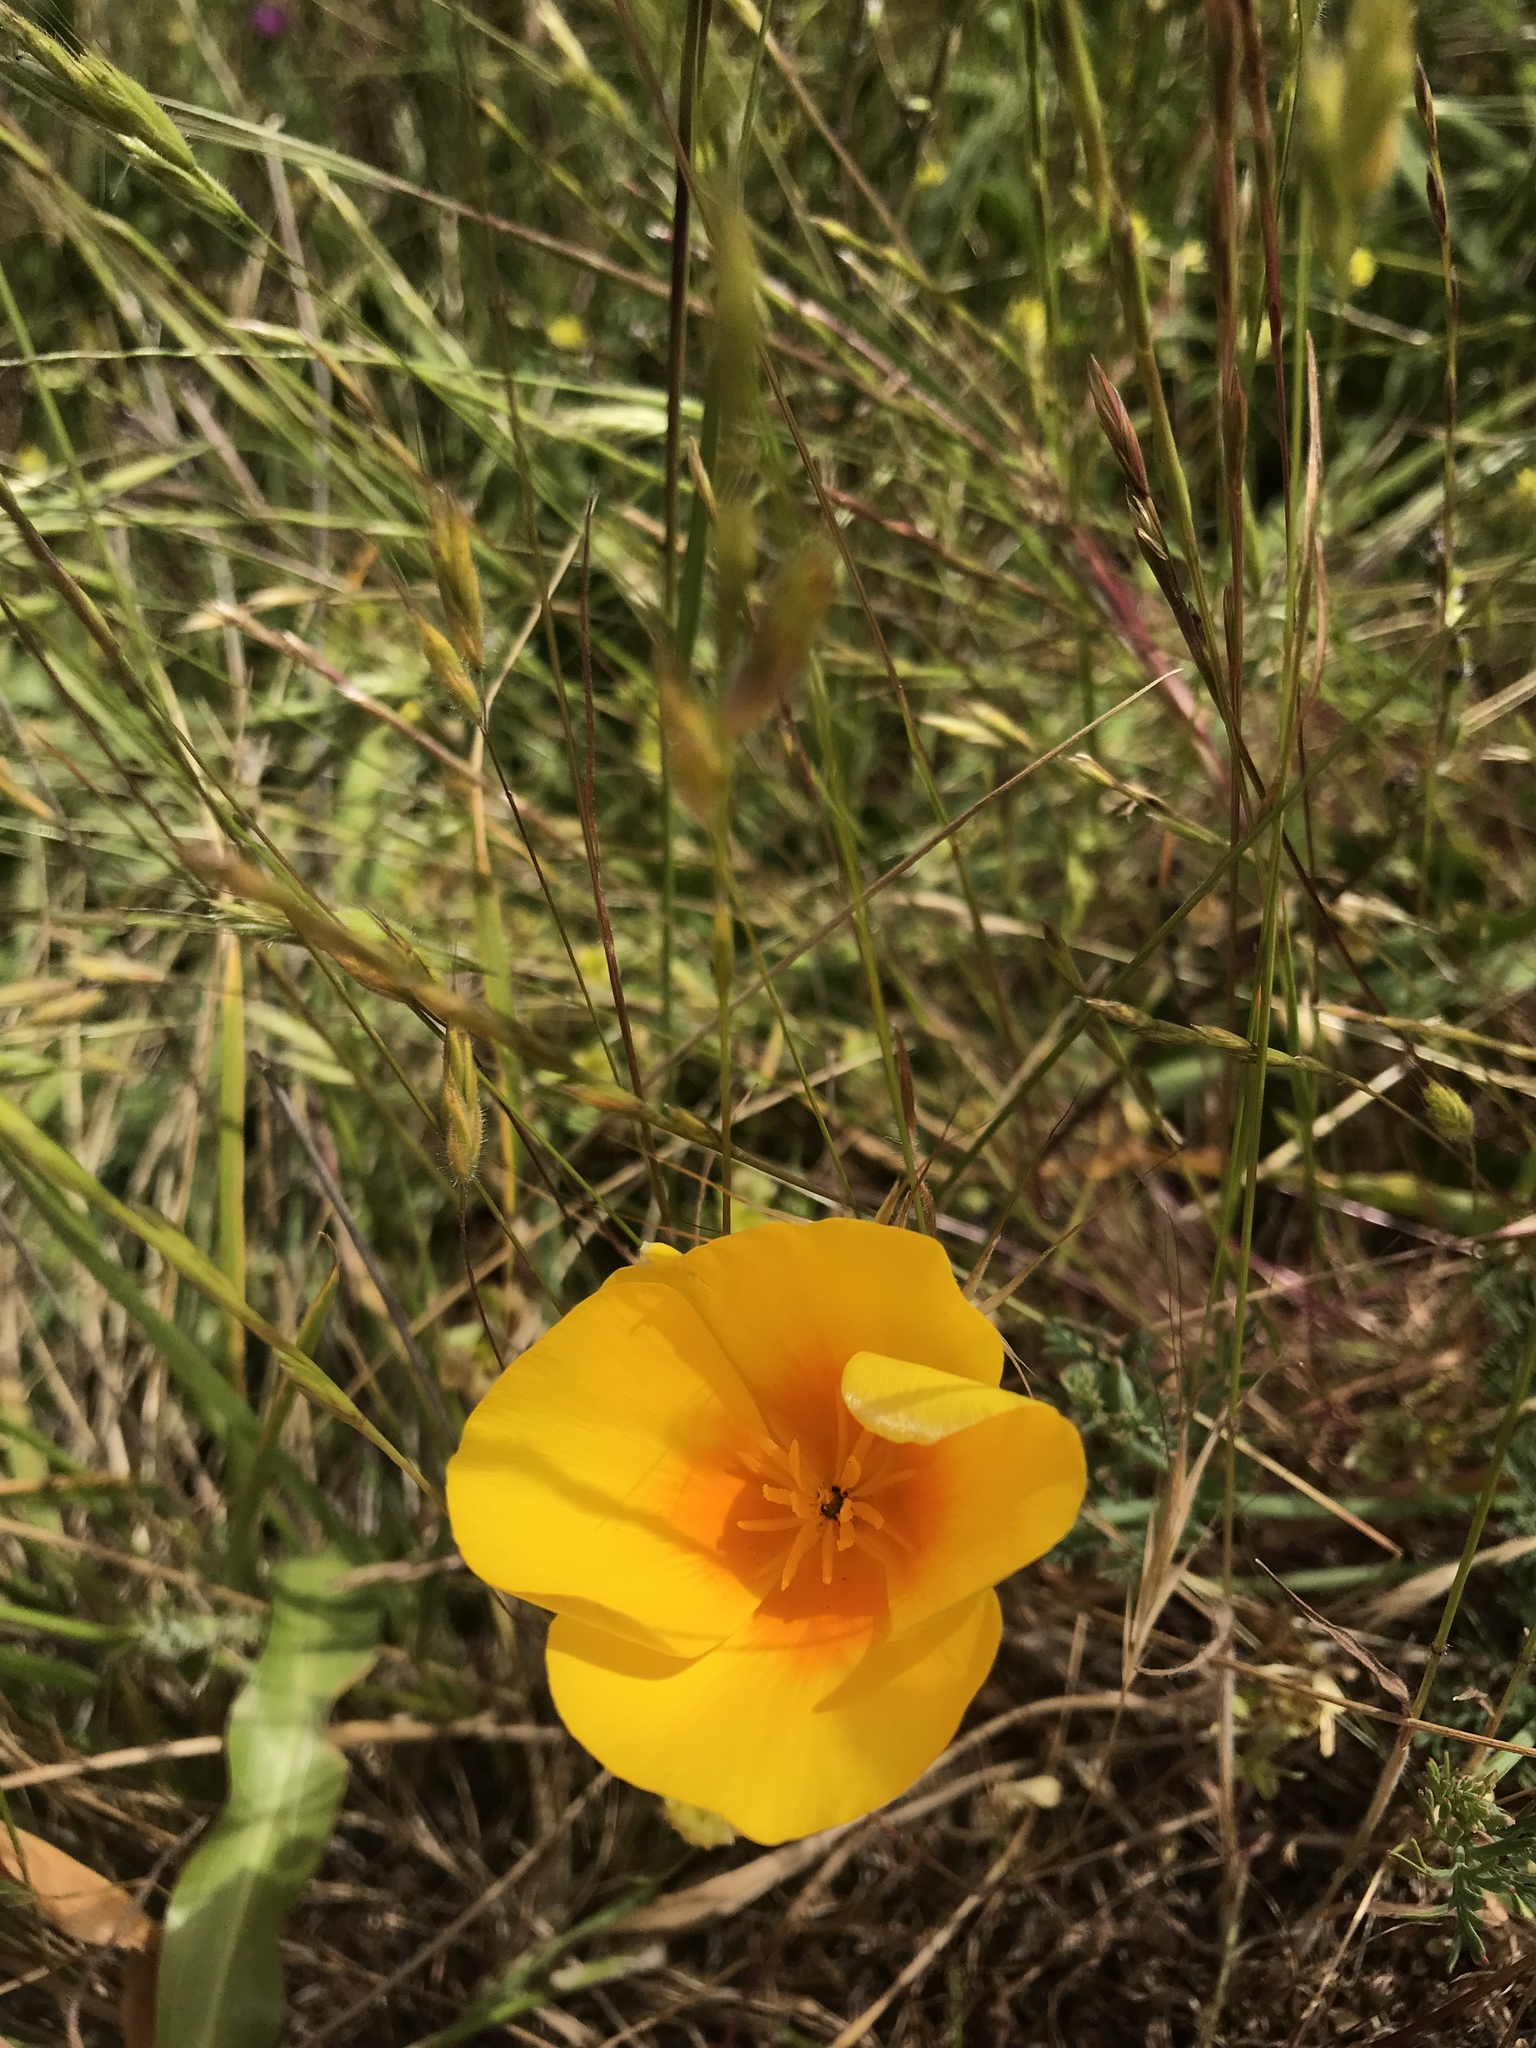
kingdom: Plantae
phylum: Tracheophyta
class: Magnoliopsida
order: Ranunculales
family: Papaveraceae
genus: Eschscholzia
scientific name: Eschscholzia californica
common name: California poppy
